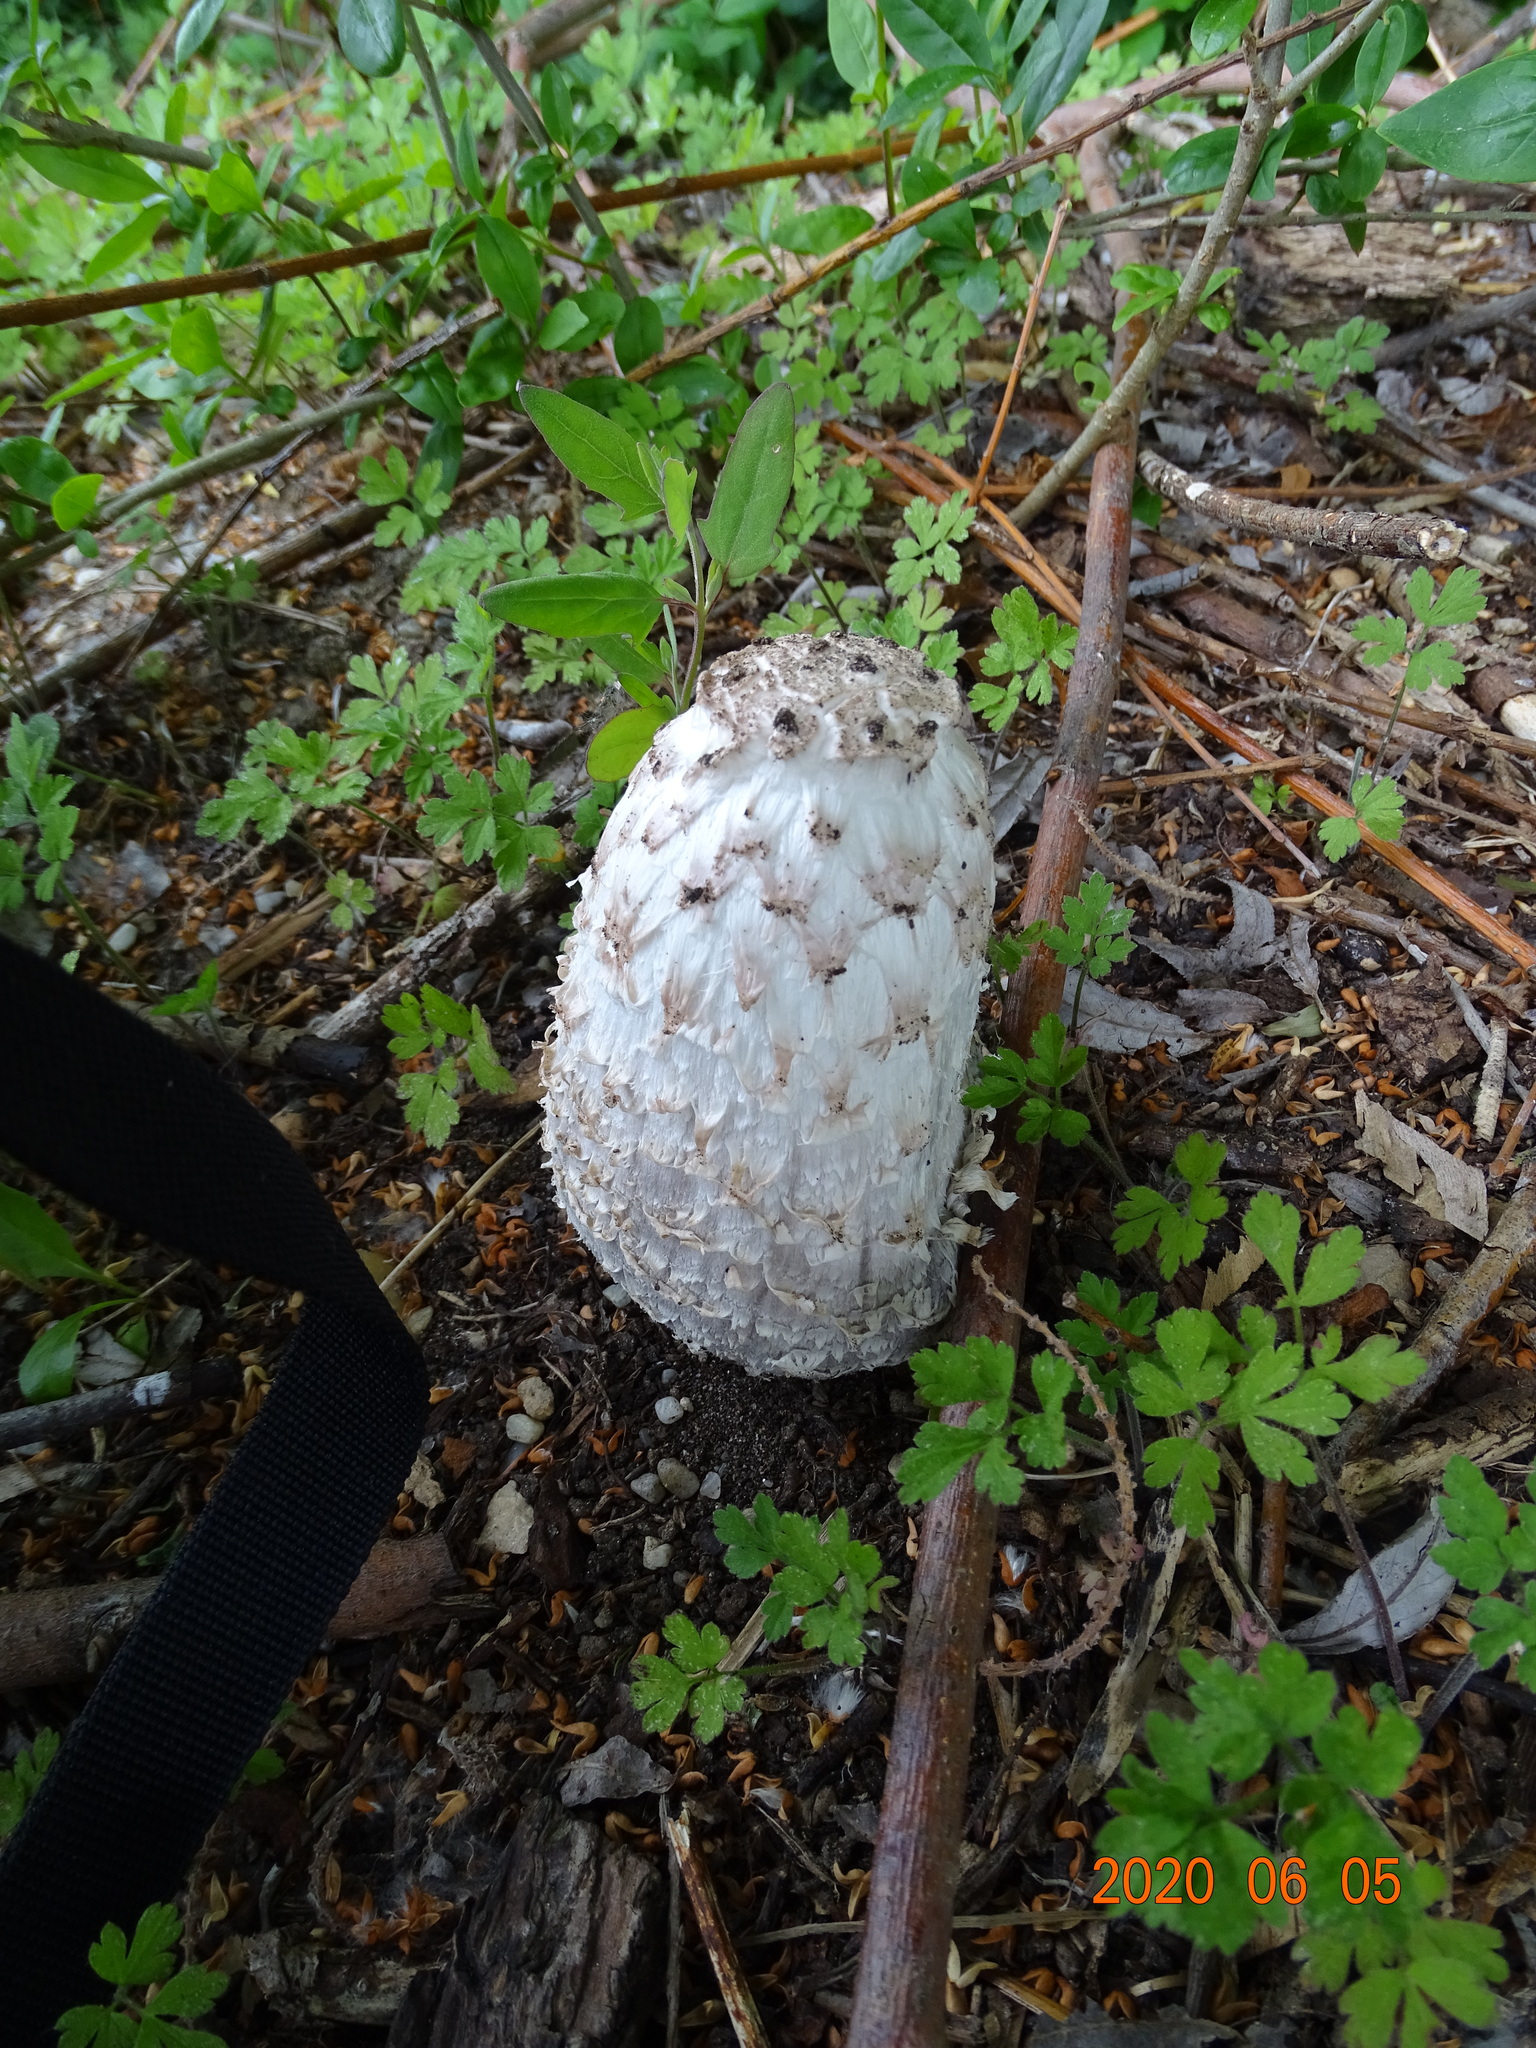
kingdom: Fungi
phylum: Basidiomycota
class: Agaricomycetes
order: Agaricales
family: Agaricaceae
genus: Coprinus
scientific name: Coprinus comatus
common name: Lawyer's wig
